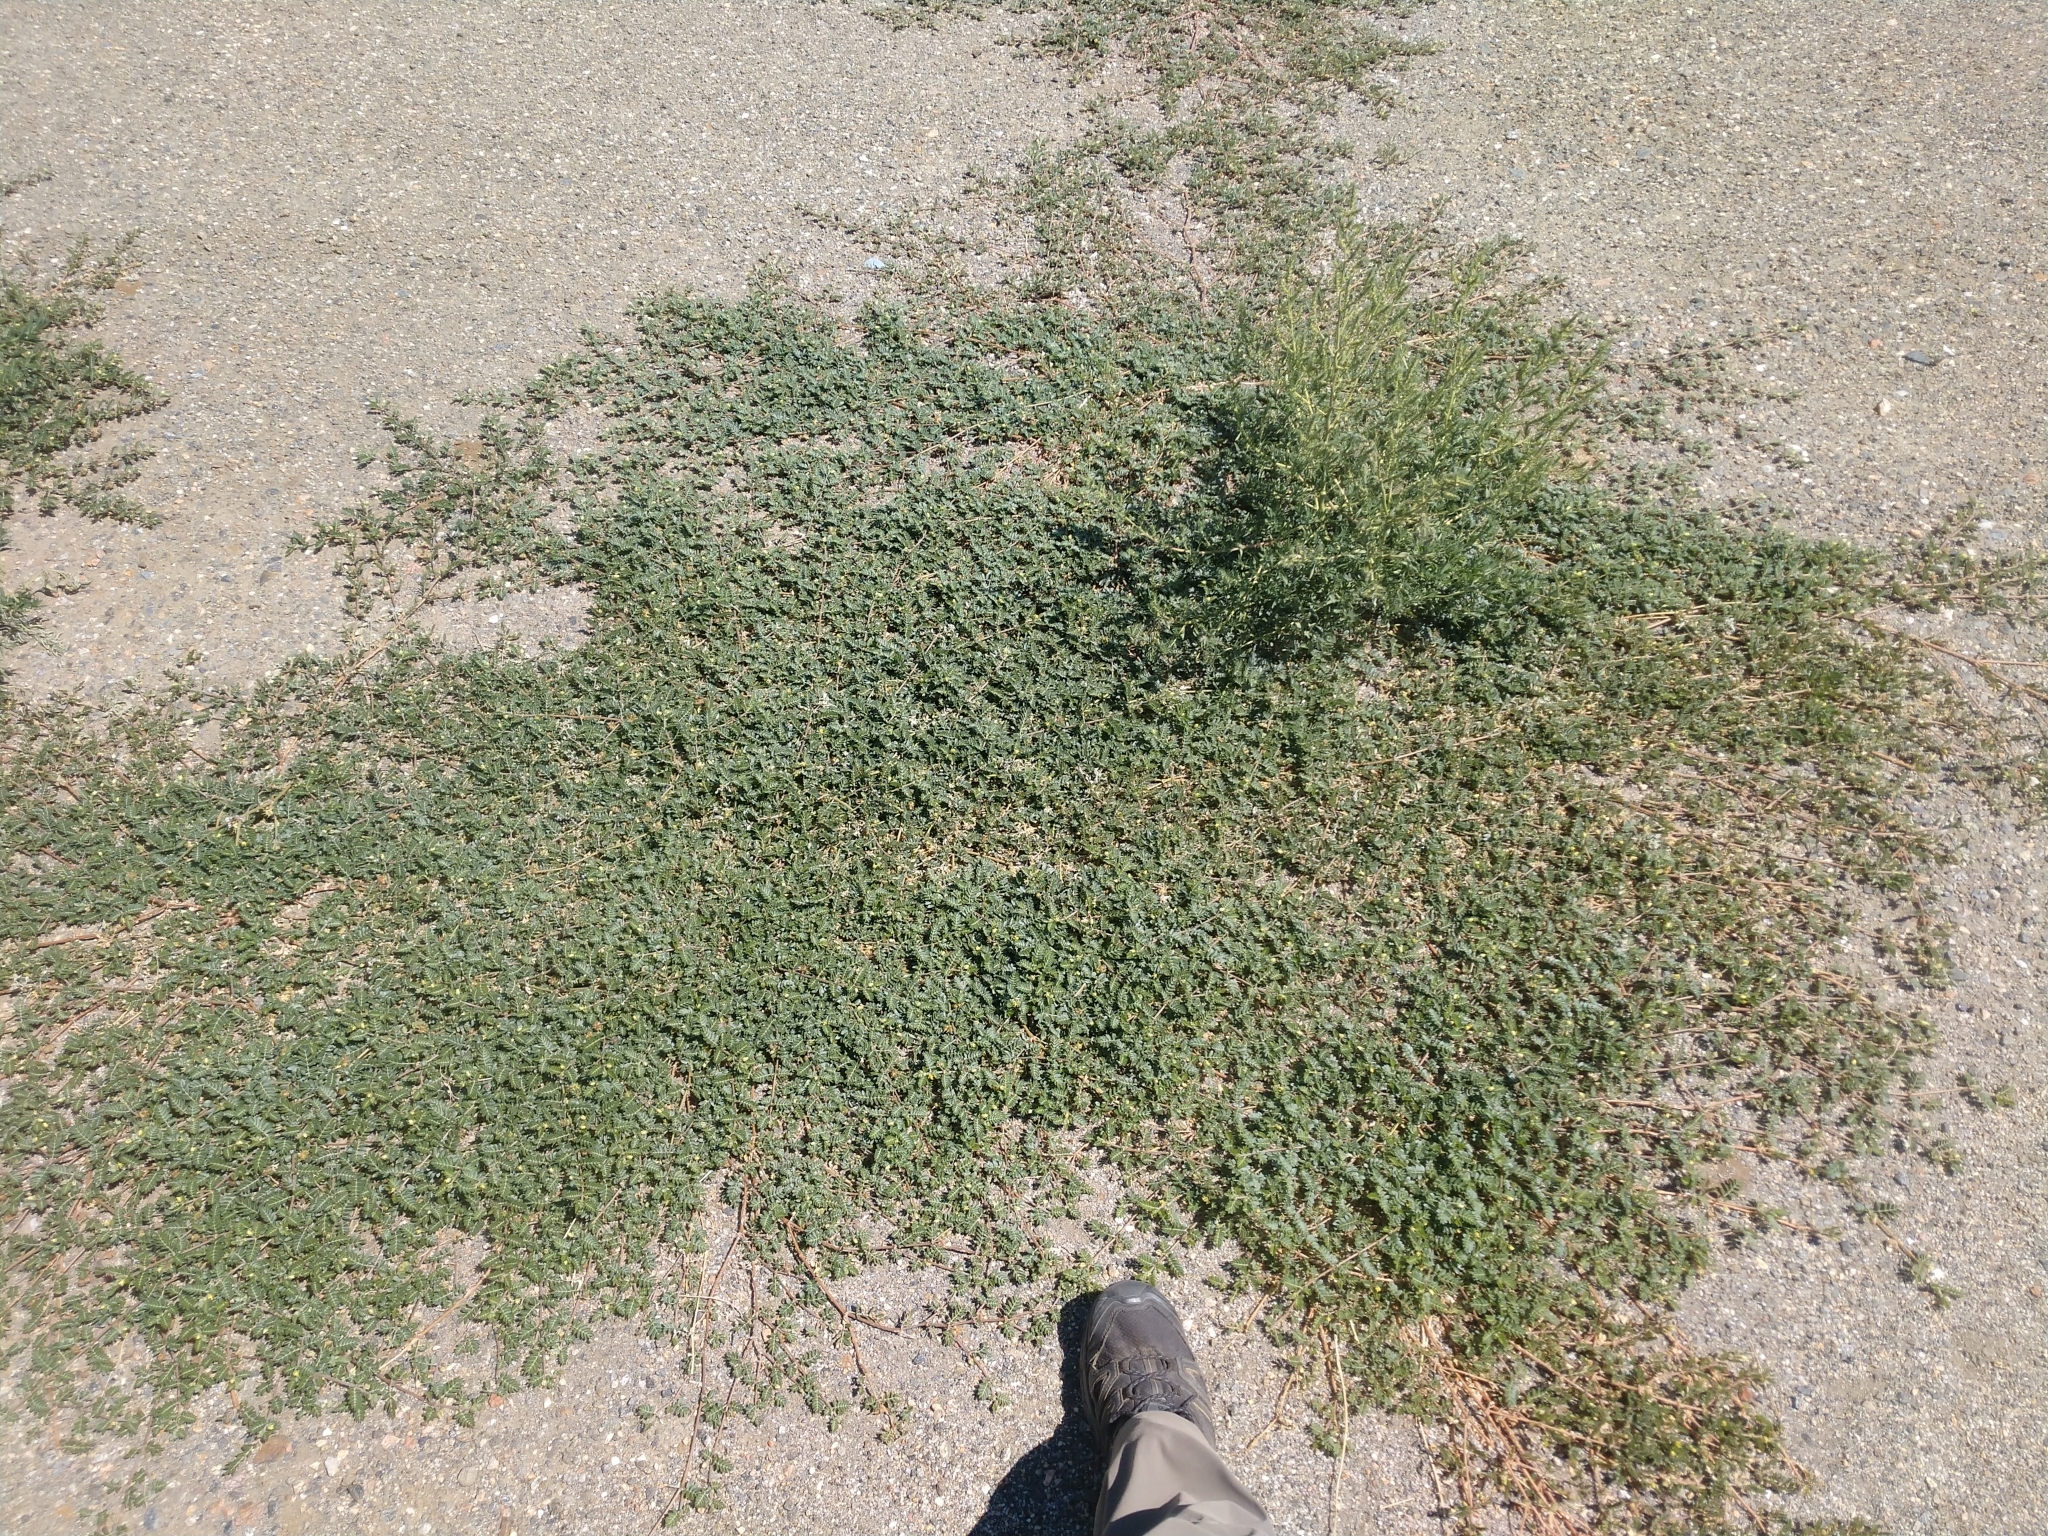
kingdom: Plantae
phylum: Tracheophyta
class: Magnoliopsida
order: Zygophyllales
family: Zygophyllaceae
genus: Tribulus
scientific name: Tribulus terrestris
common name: Puncturevine
